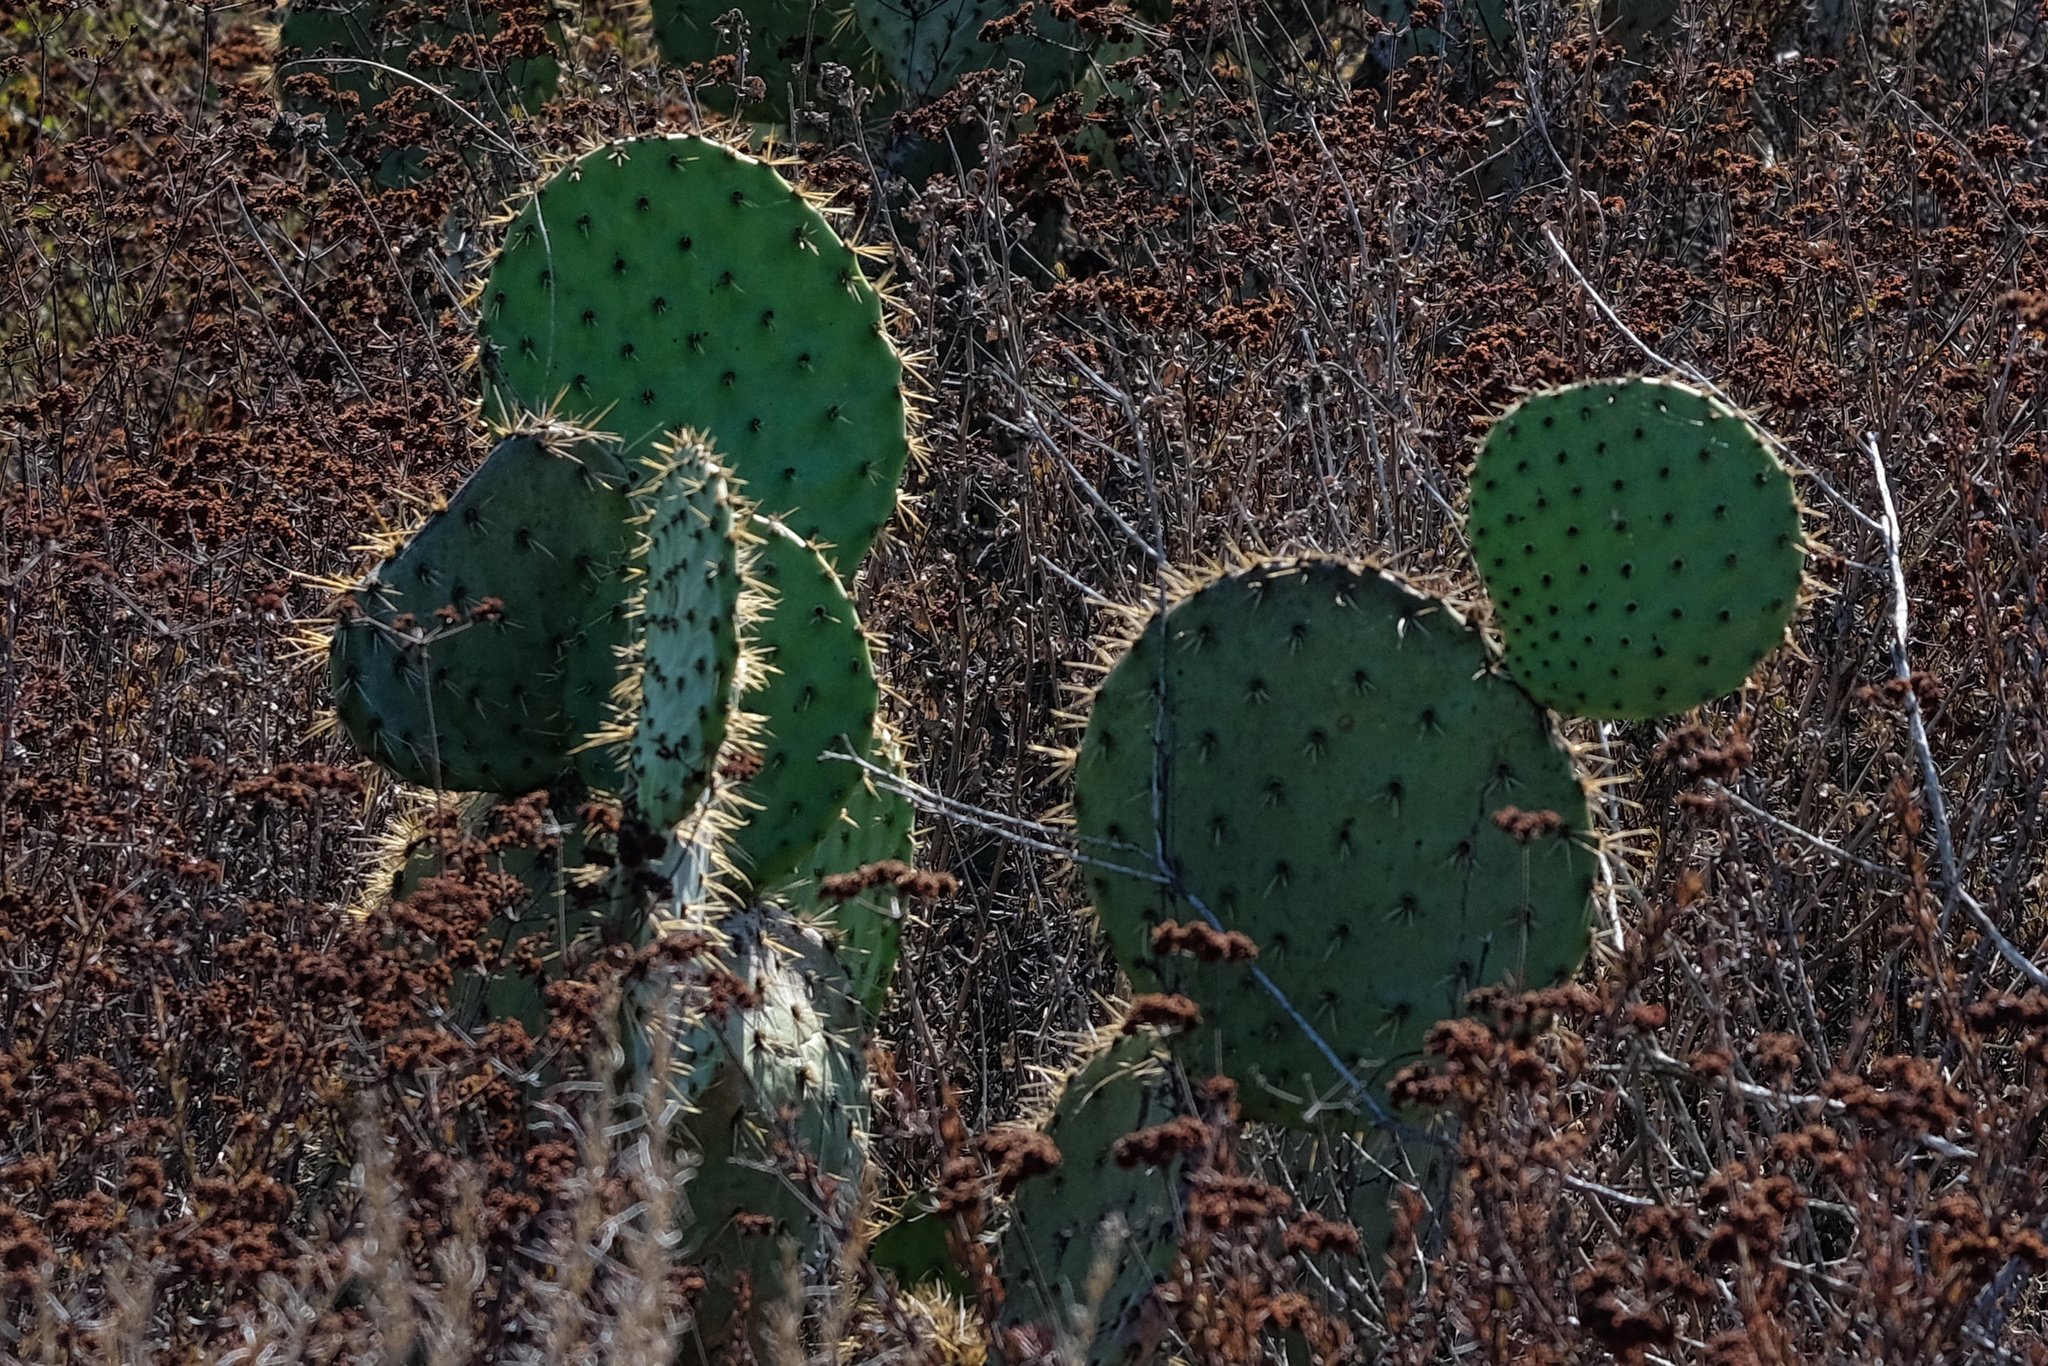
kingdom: Plantae
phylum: Tracheophyta
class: Magnoliopsida
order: Caryophyllales
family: Cactaceae
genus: Opuntia
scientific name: Opuntia oricola
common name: Chaparral prickly-pear
